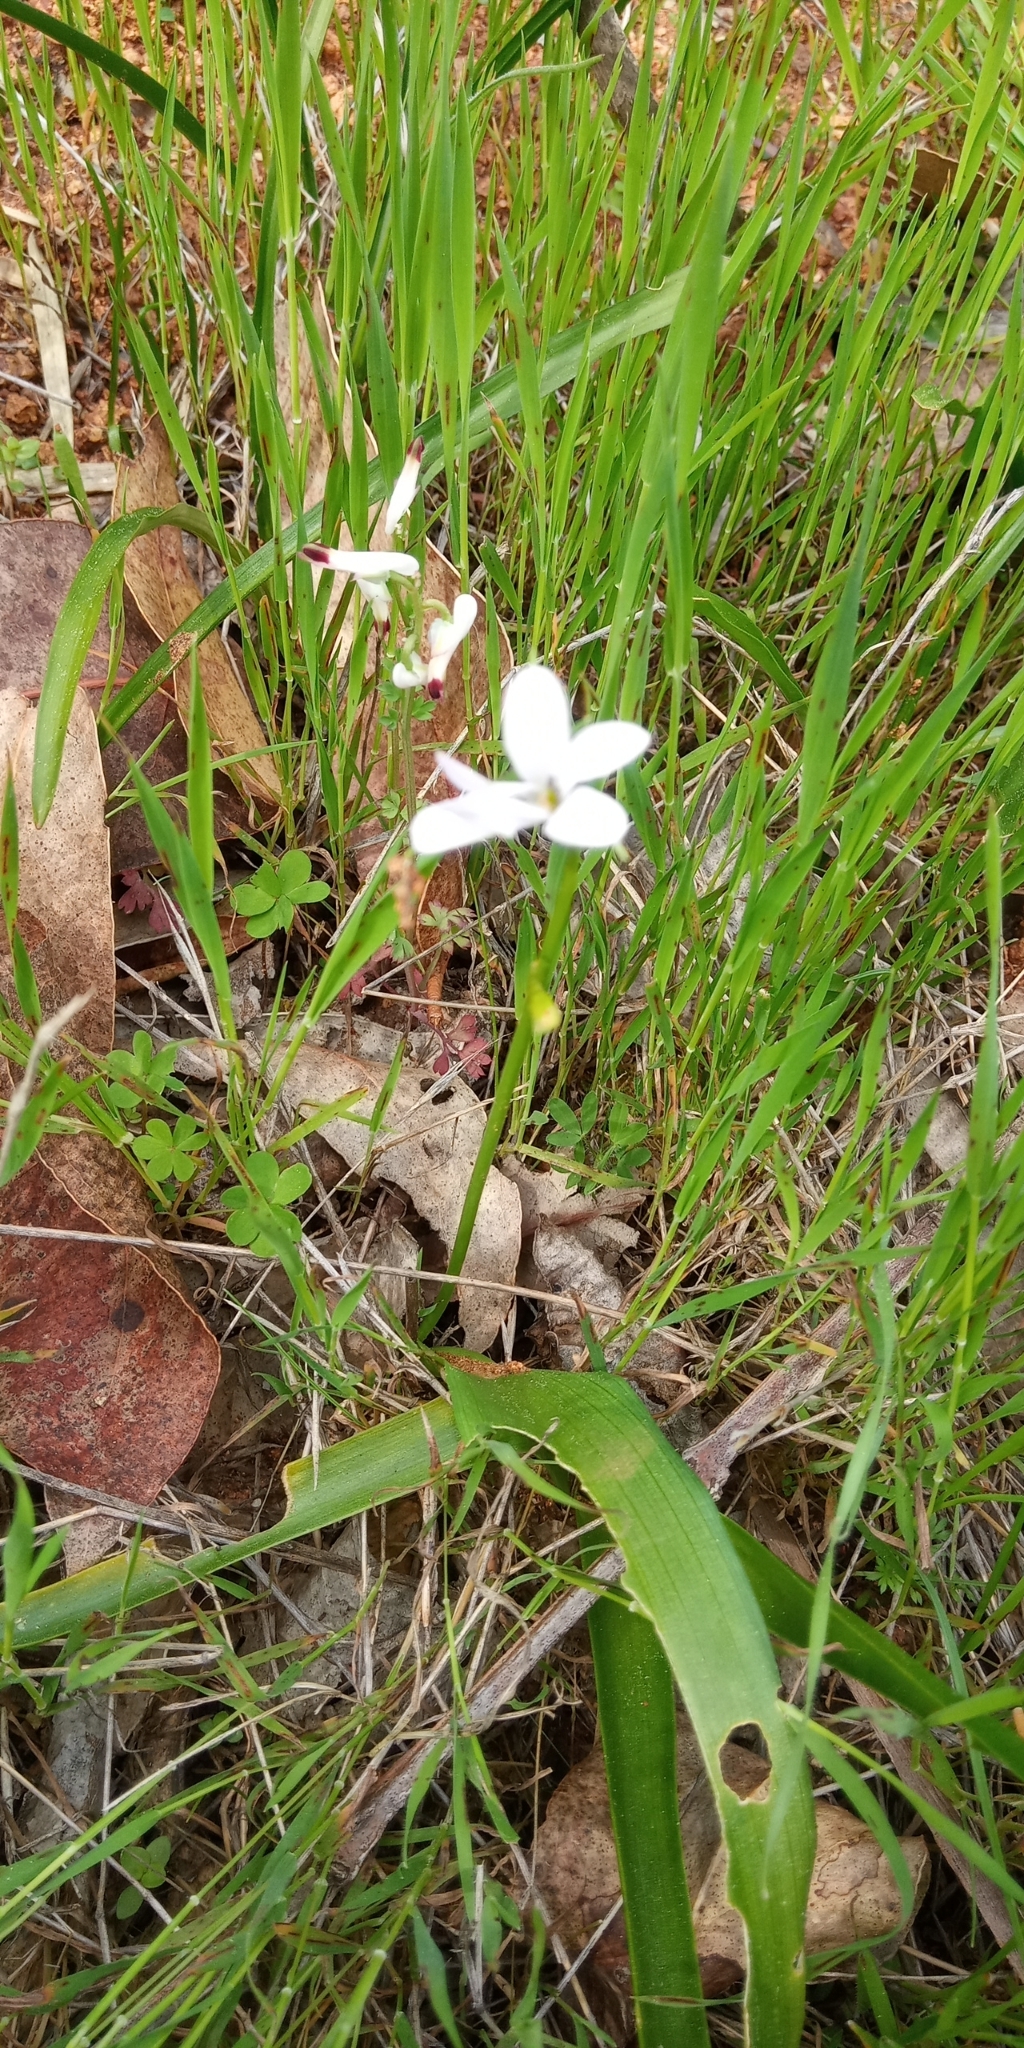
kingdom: Plantae
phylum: Tracheophyta
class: Liliopsida
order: Asparagales
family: Tecophilaeaceae
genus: Tecophilaea
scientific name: Tecophilaea violiflora
